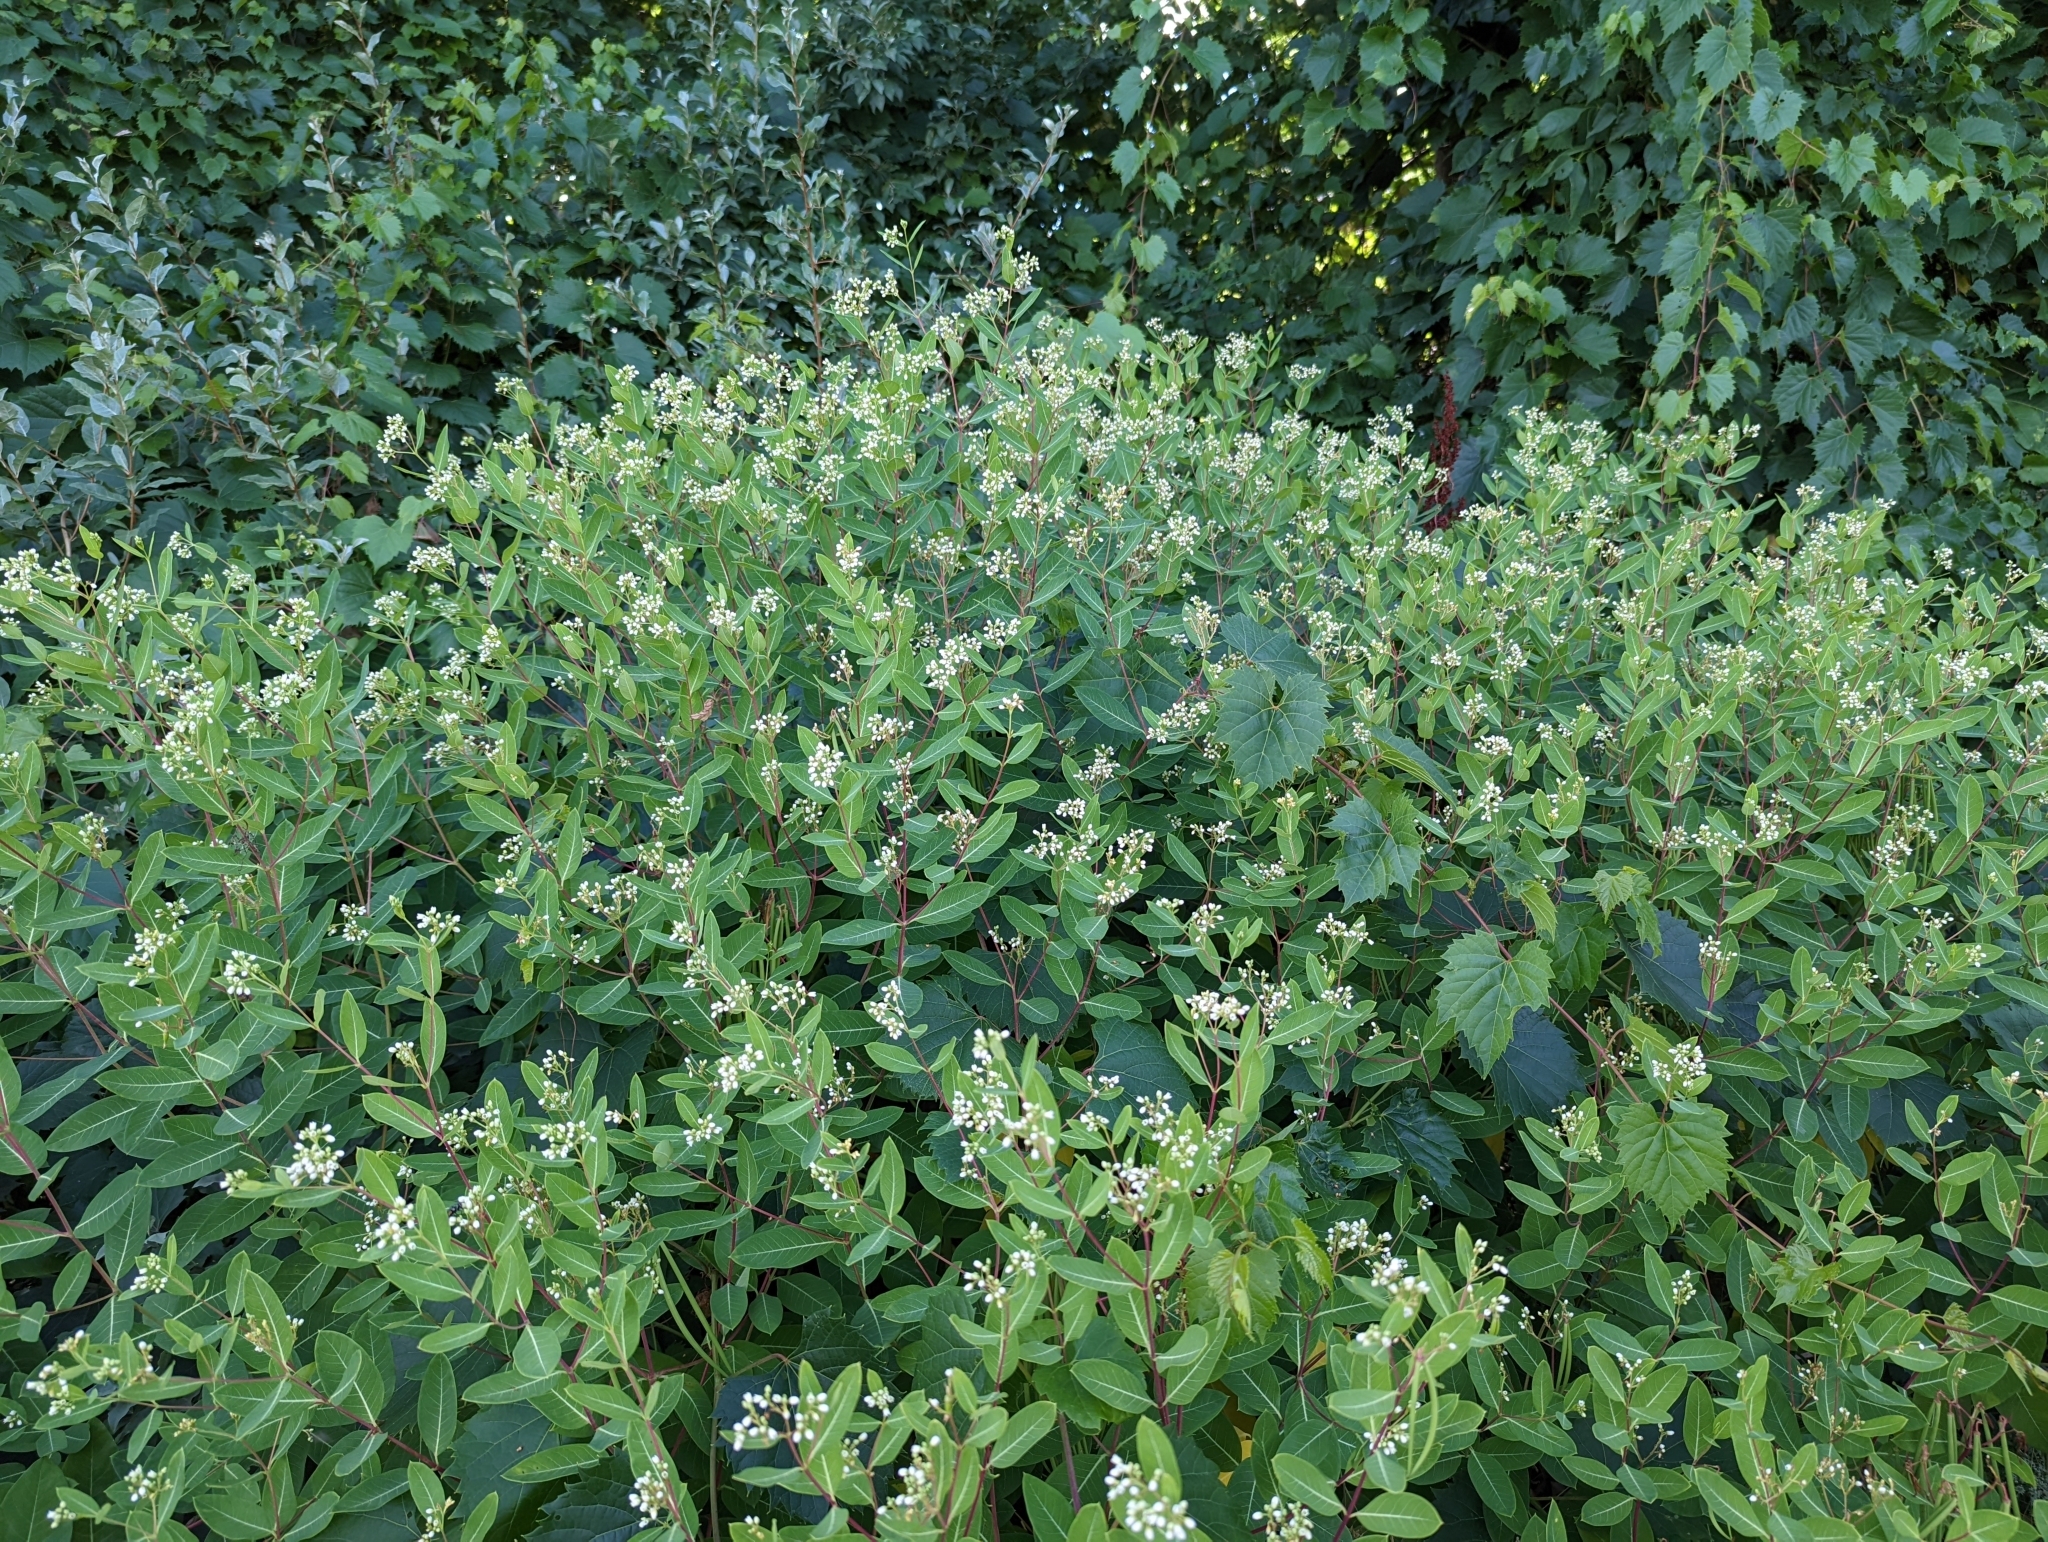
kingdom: Plantae
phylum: Tracheophyta
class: Magnoliopsida
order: Gentianales
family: Apocynaceae
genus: Apocynum
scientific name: Apocynum cannabinum
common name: Hemp dogbane
